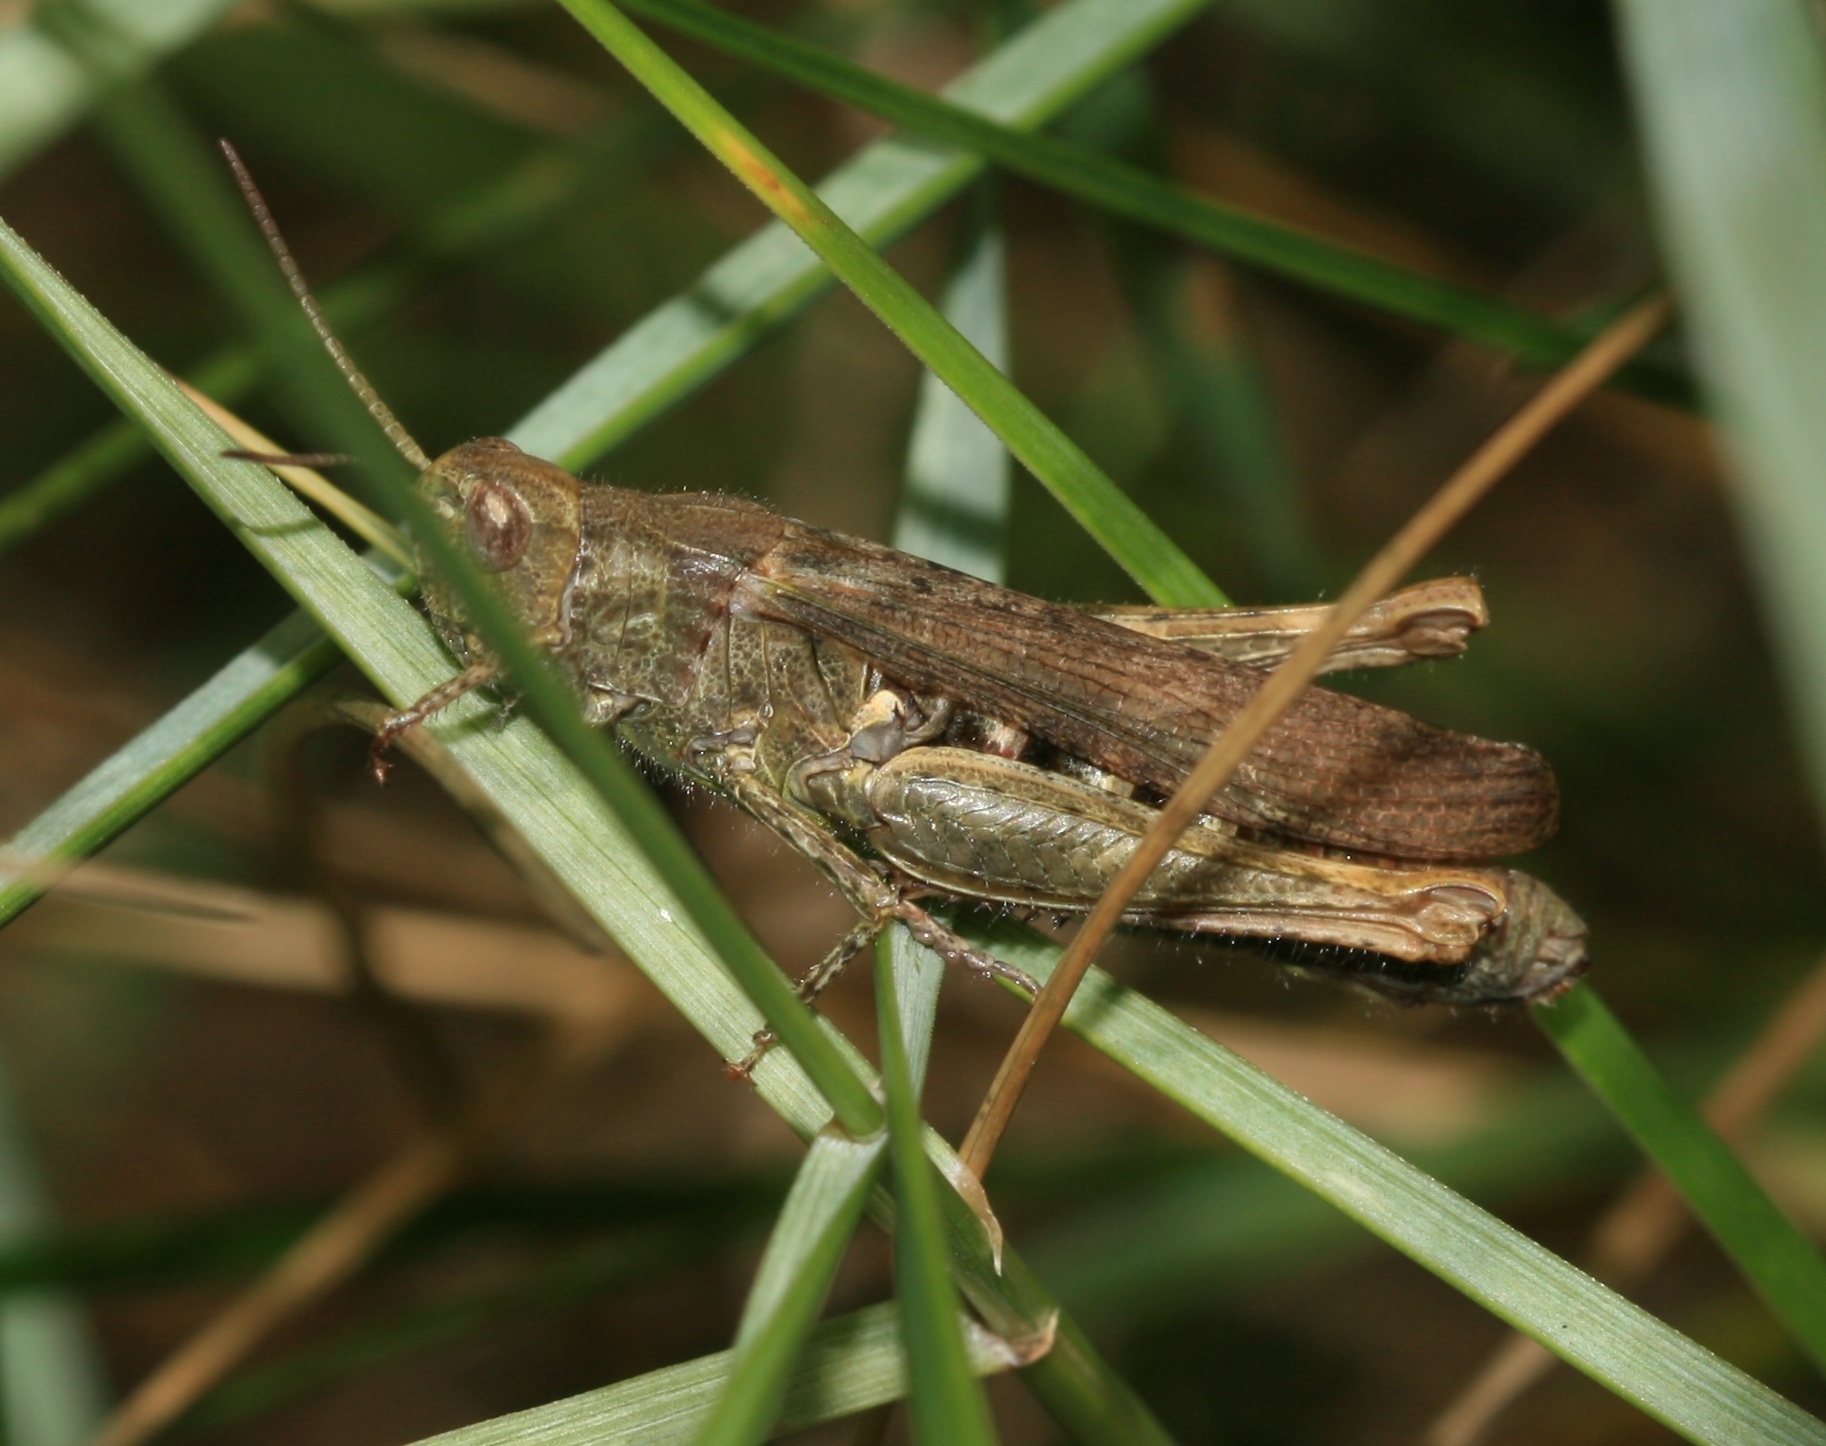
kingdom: Animalia
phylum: Arthropoda
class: Insecta
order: Orthoptera
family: Acrididae
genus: Chorthippus
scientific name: Chorthippus brunneus
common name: Field grasshopper
